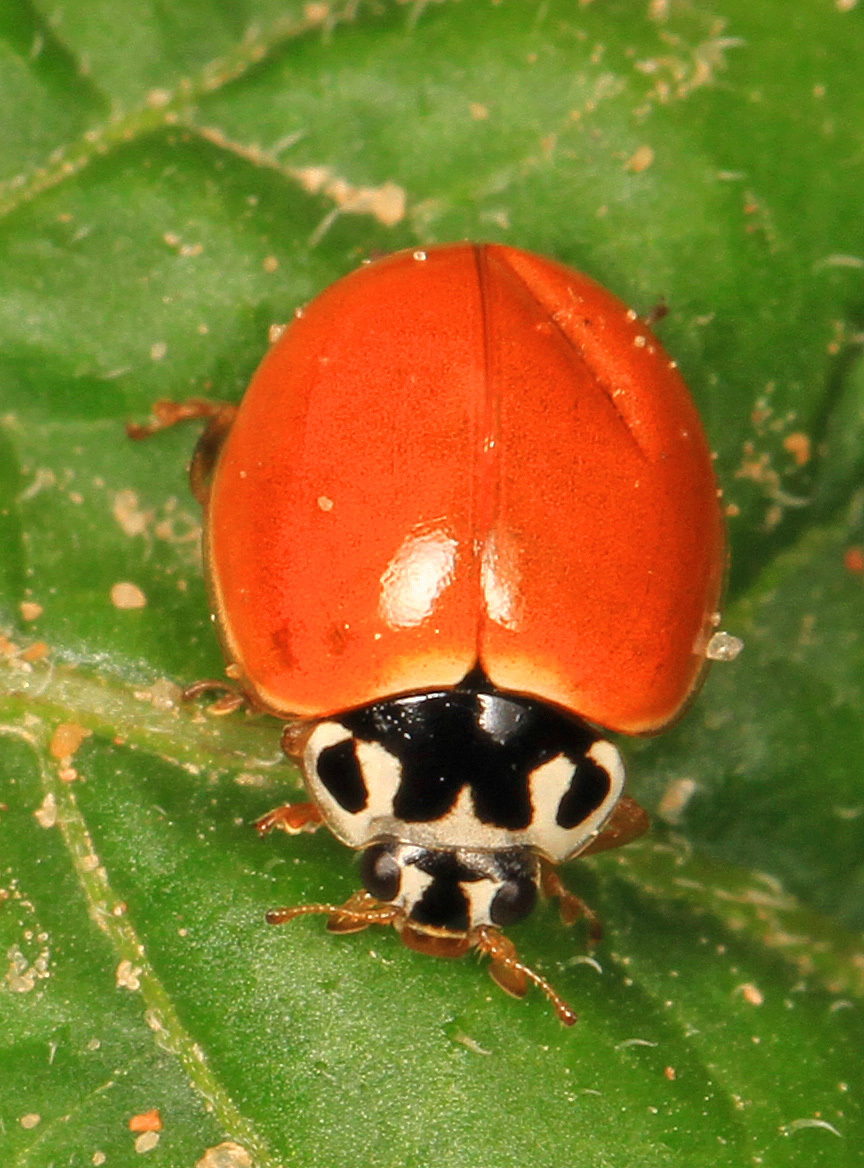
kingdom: Animalia
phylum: Arthropoda
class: Insecta
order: Coleoptera
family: Coccinellidae
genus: Cycloneda
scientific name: Cycloneda munda
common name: Polished lady beetle
